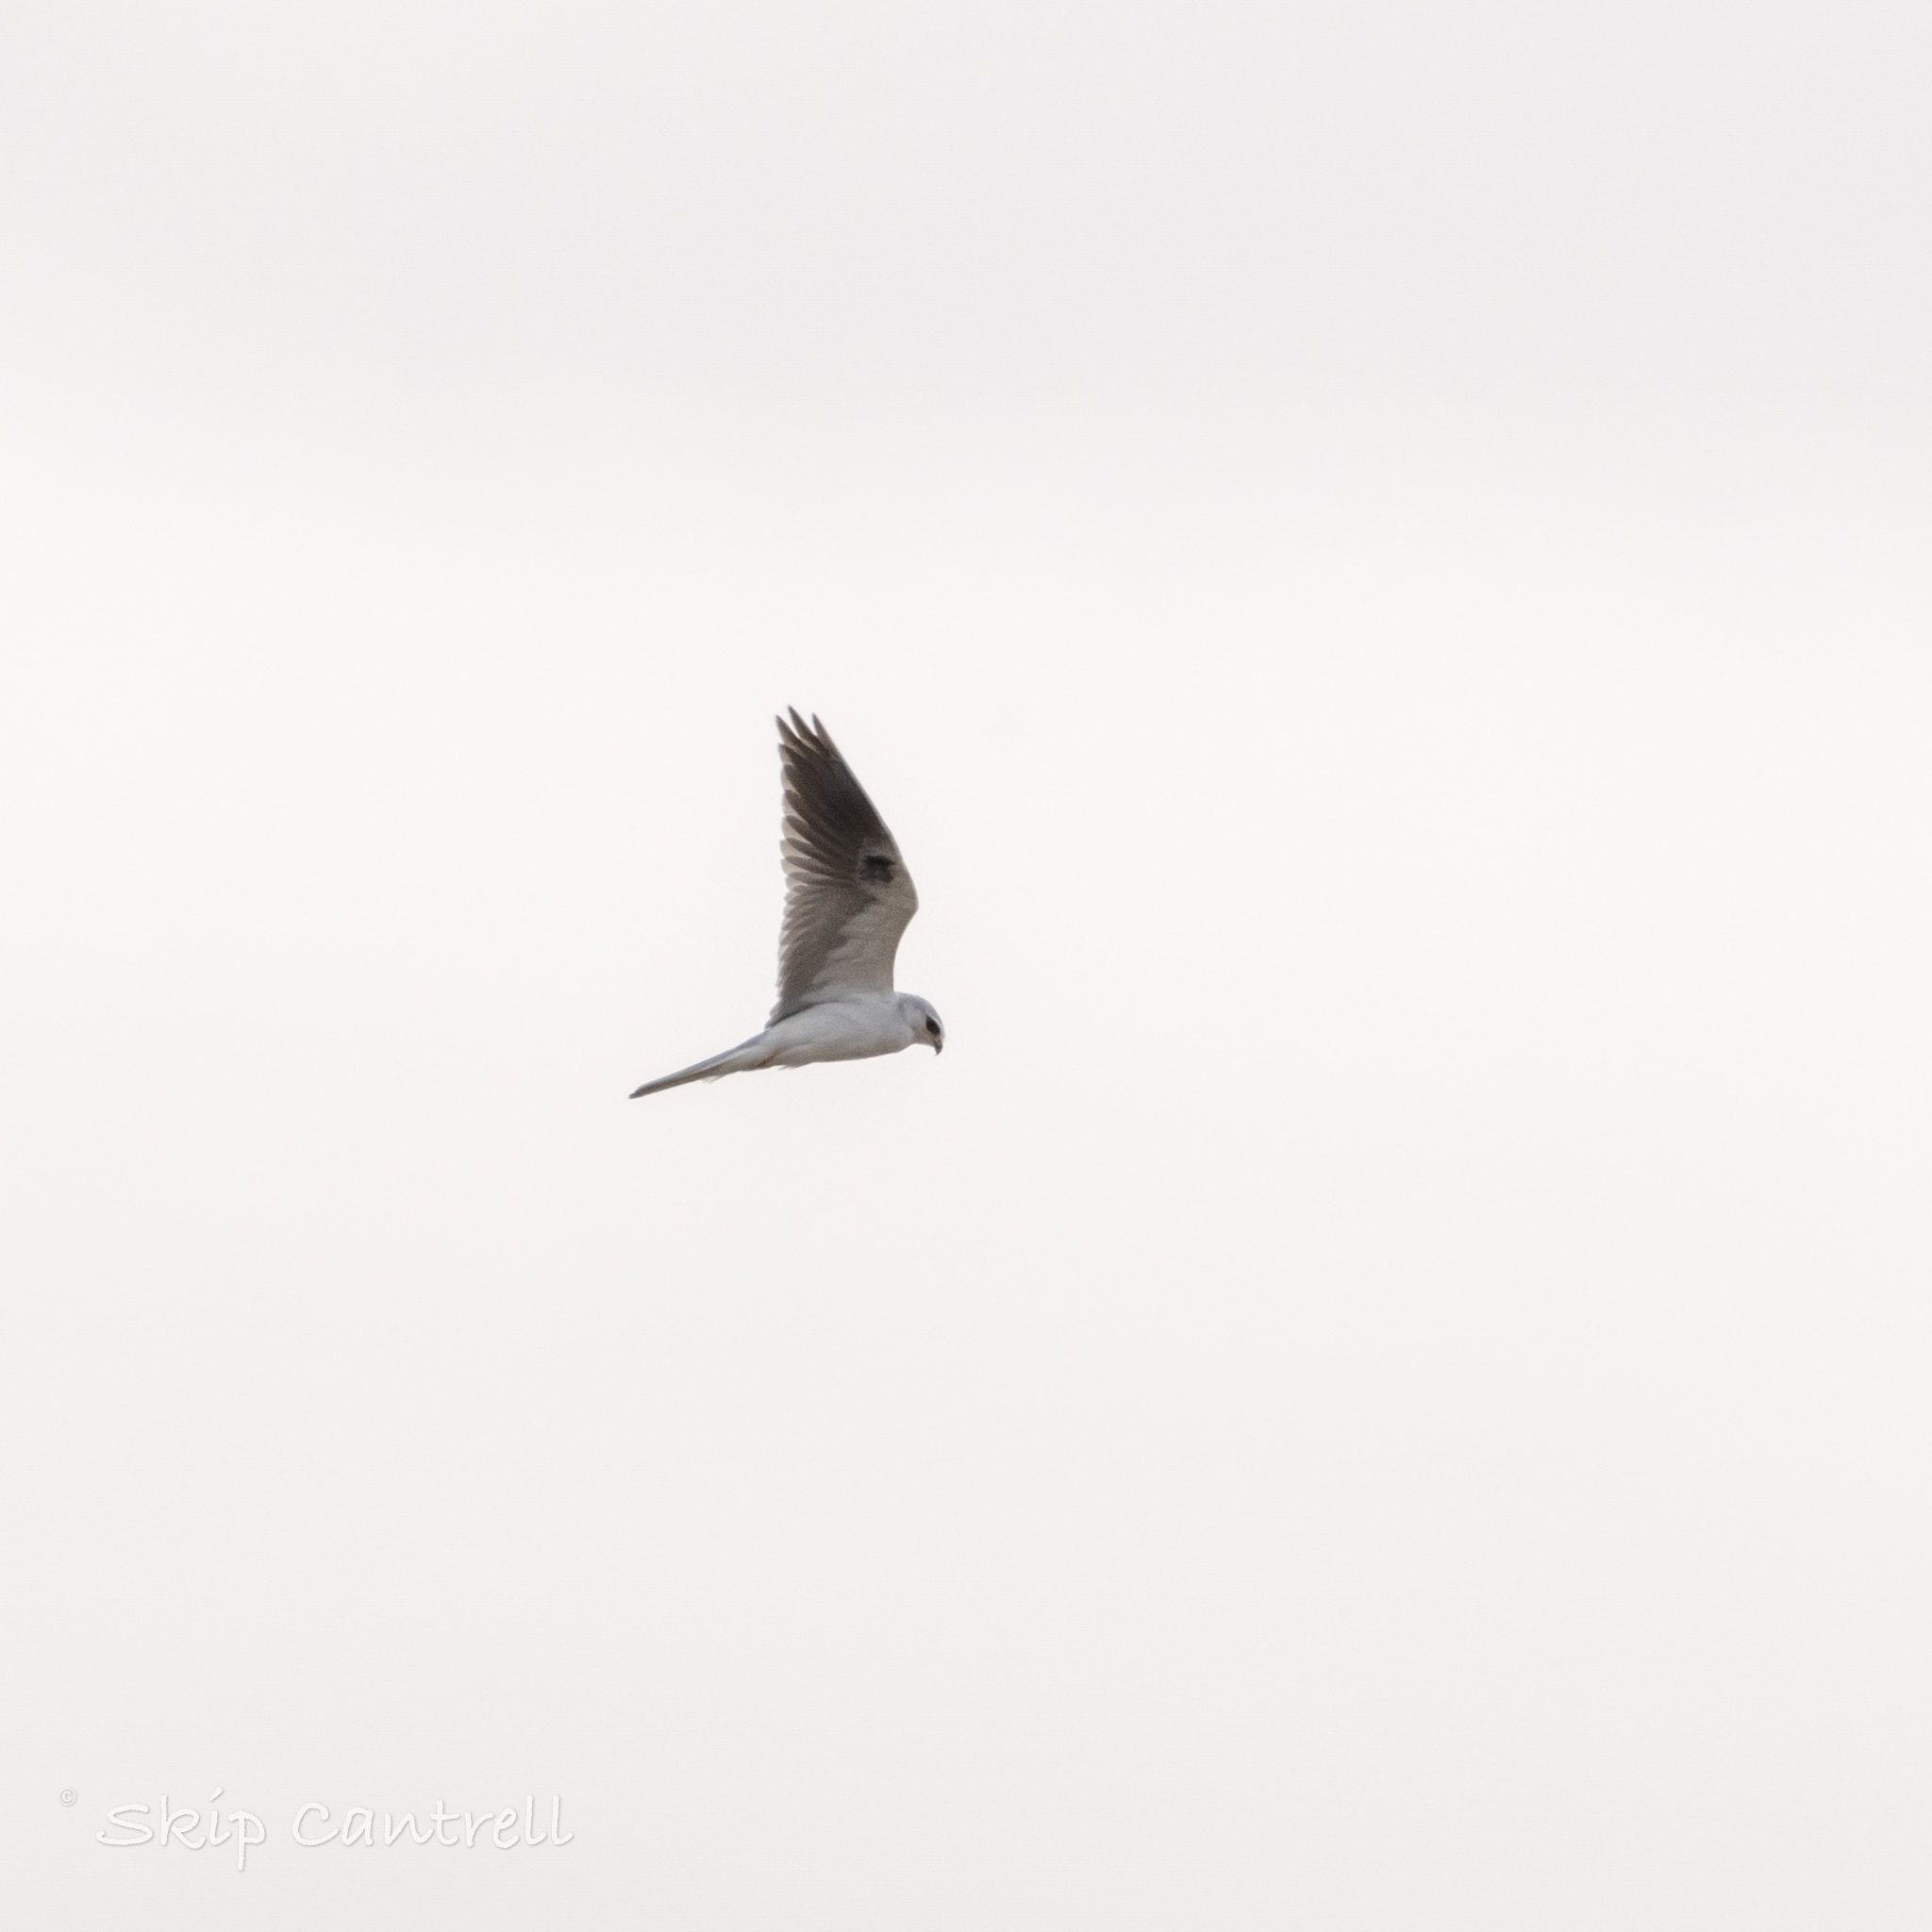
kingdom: Animalia
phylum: Chordata
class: Aves
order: Accipitriformes
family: Accipitridae
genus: Elanus
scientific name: Elanus leucurus
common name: White-tailed kite
